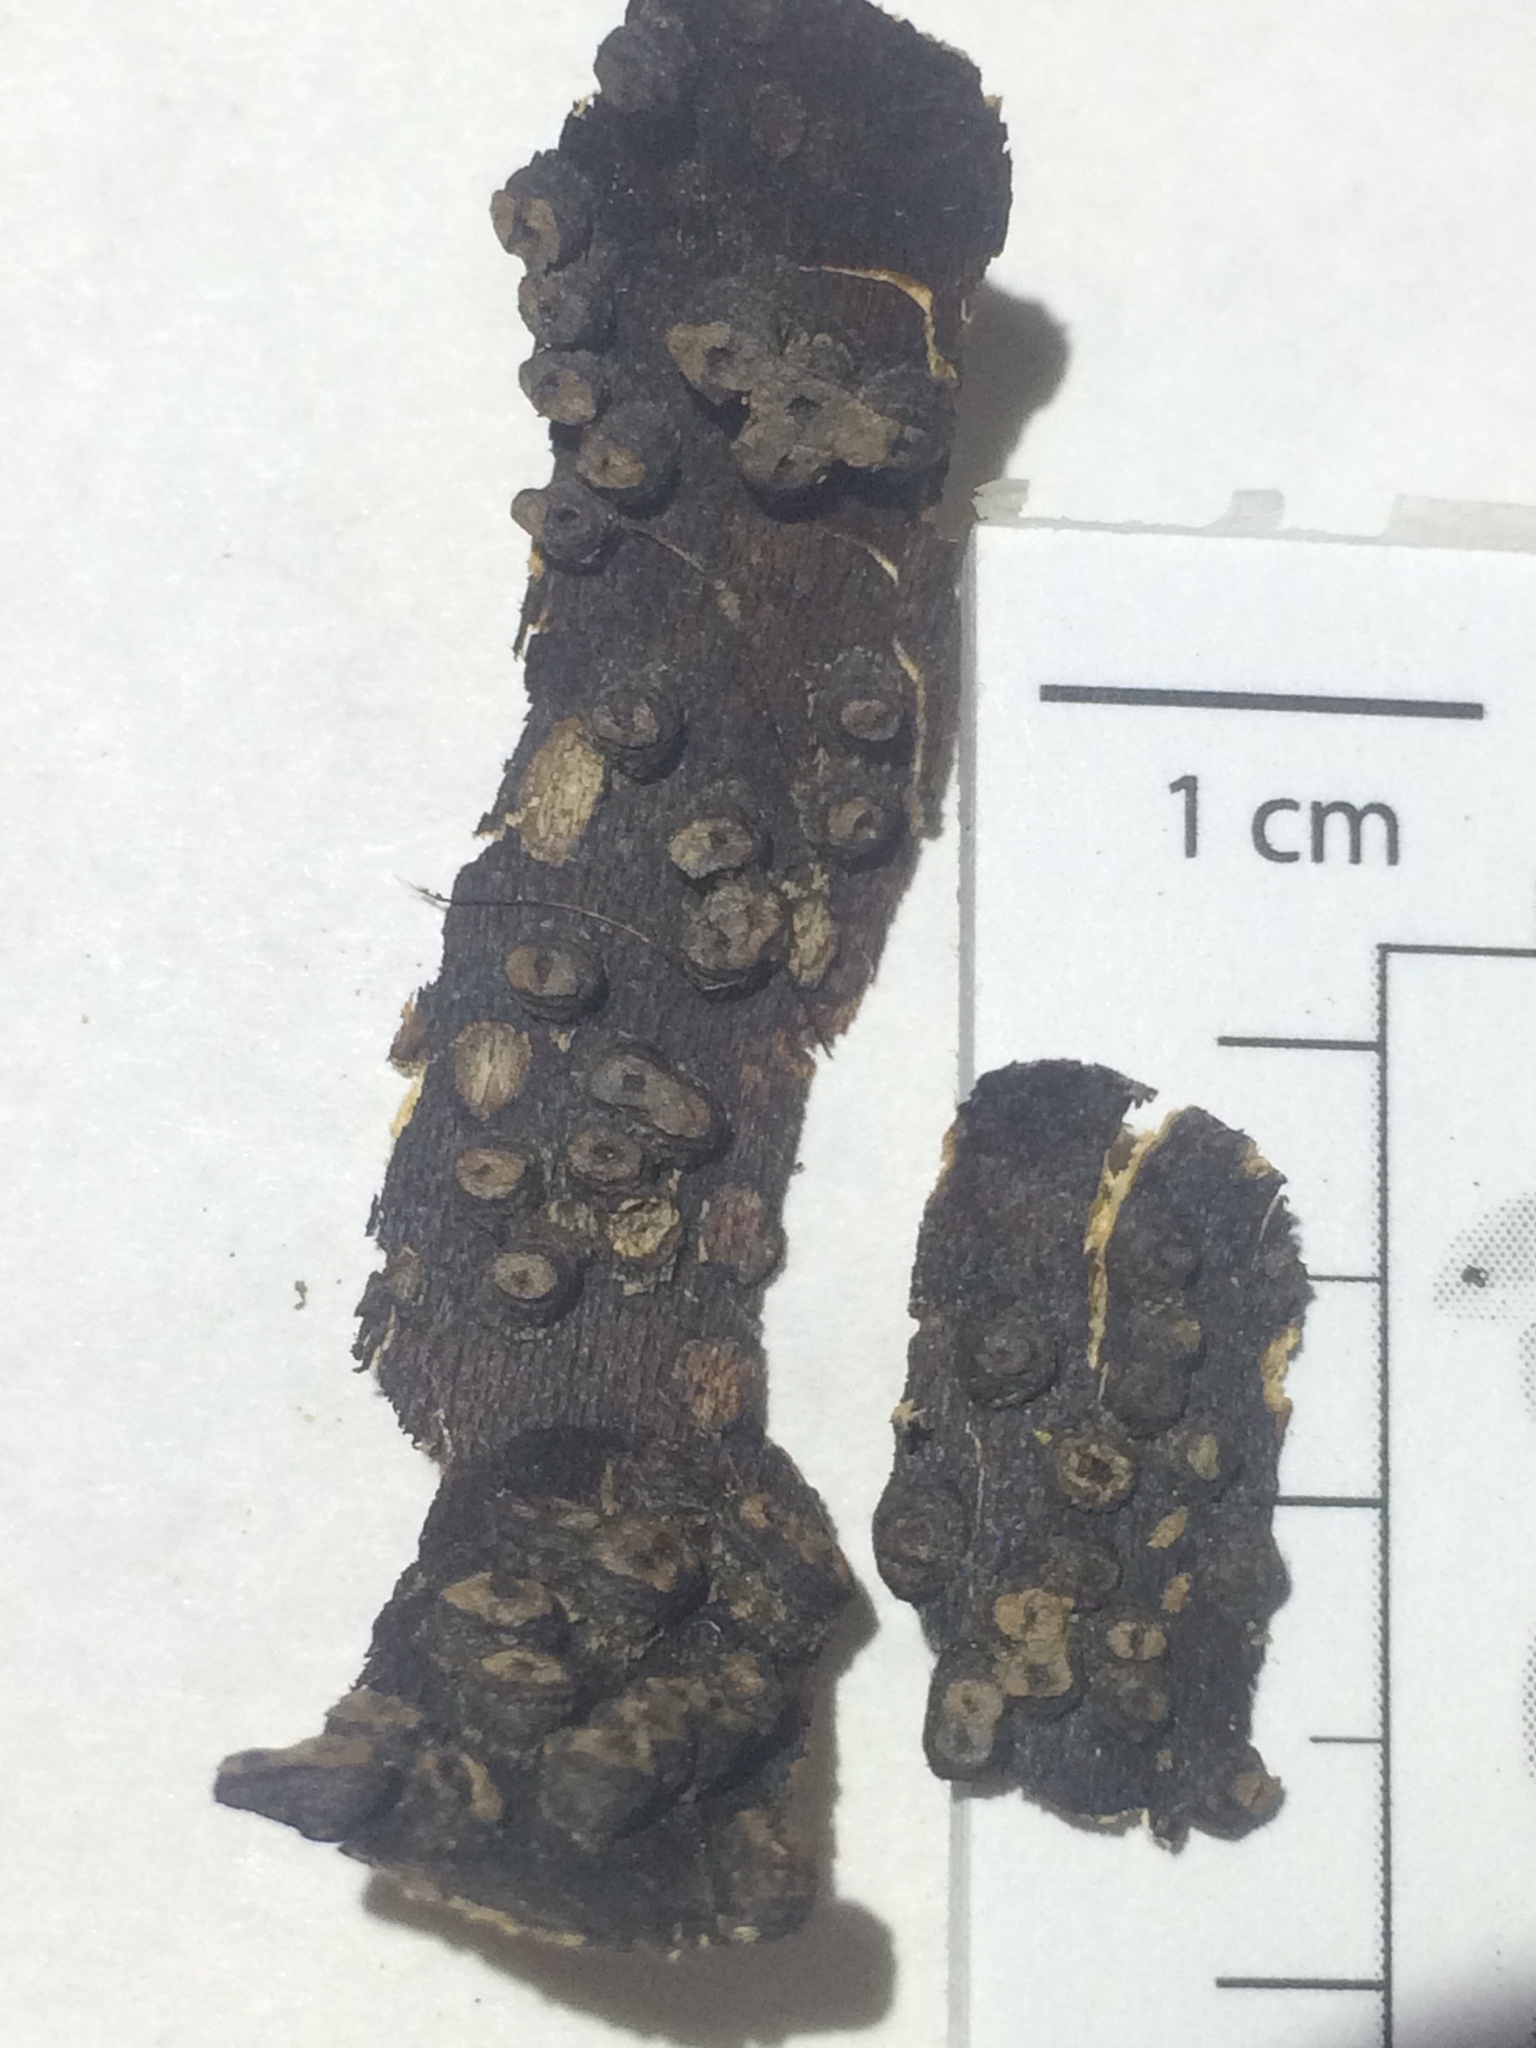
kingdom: Fungi
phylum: Ascomycota
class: Sordariomycetes
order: Xylariales
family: Xylariaceae
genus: Rosellinia
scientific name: Rosellinia corticium
